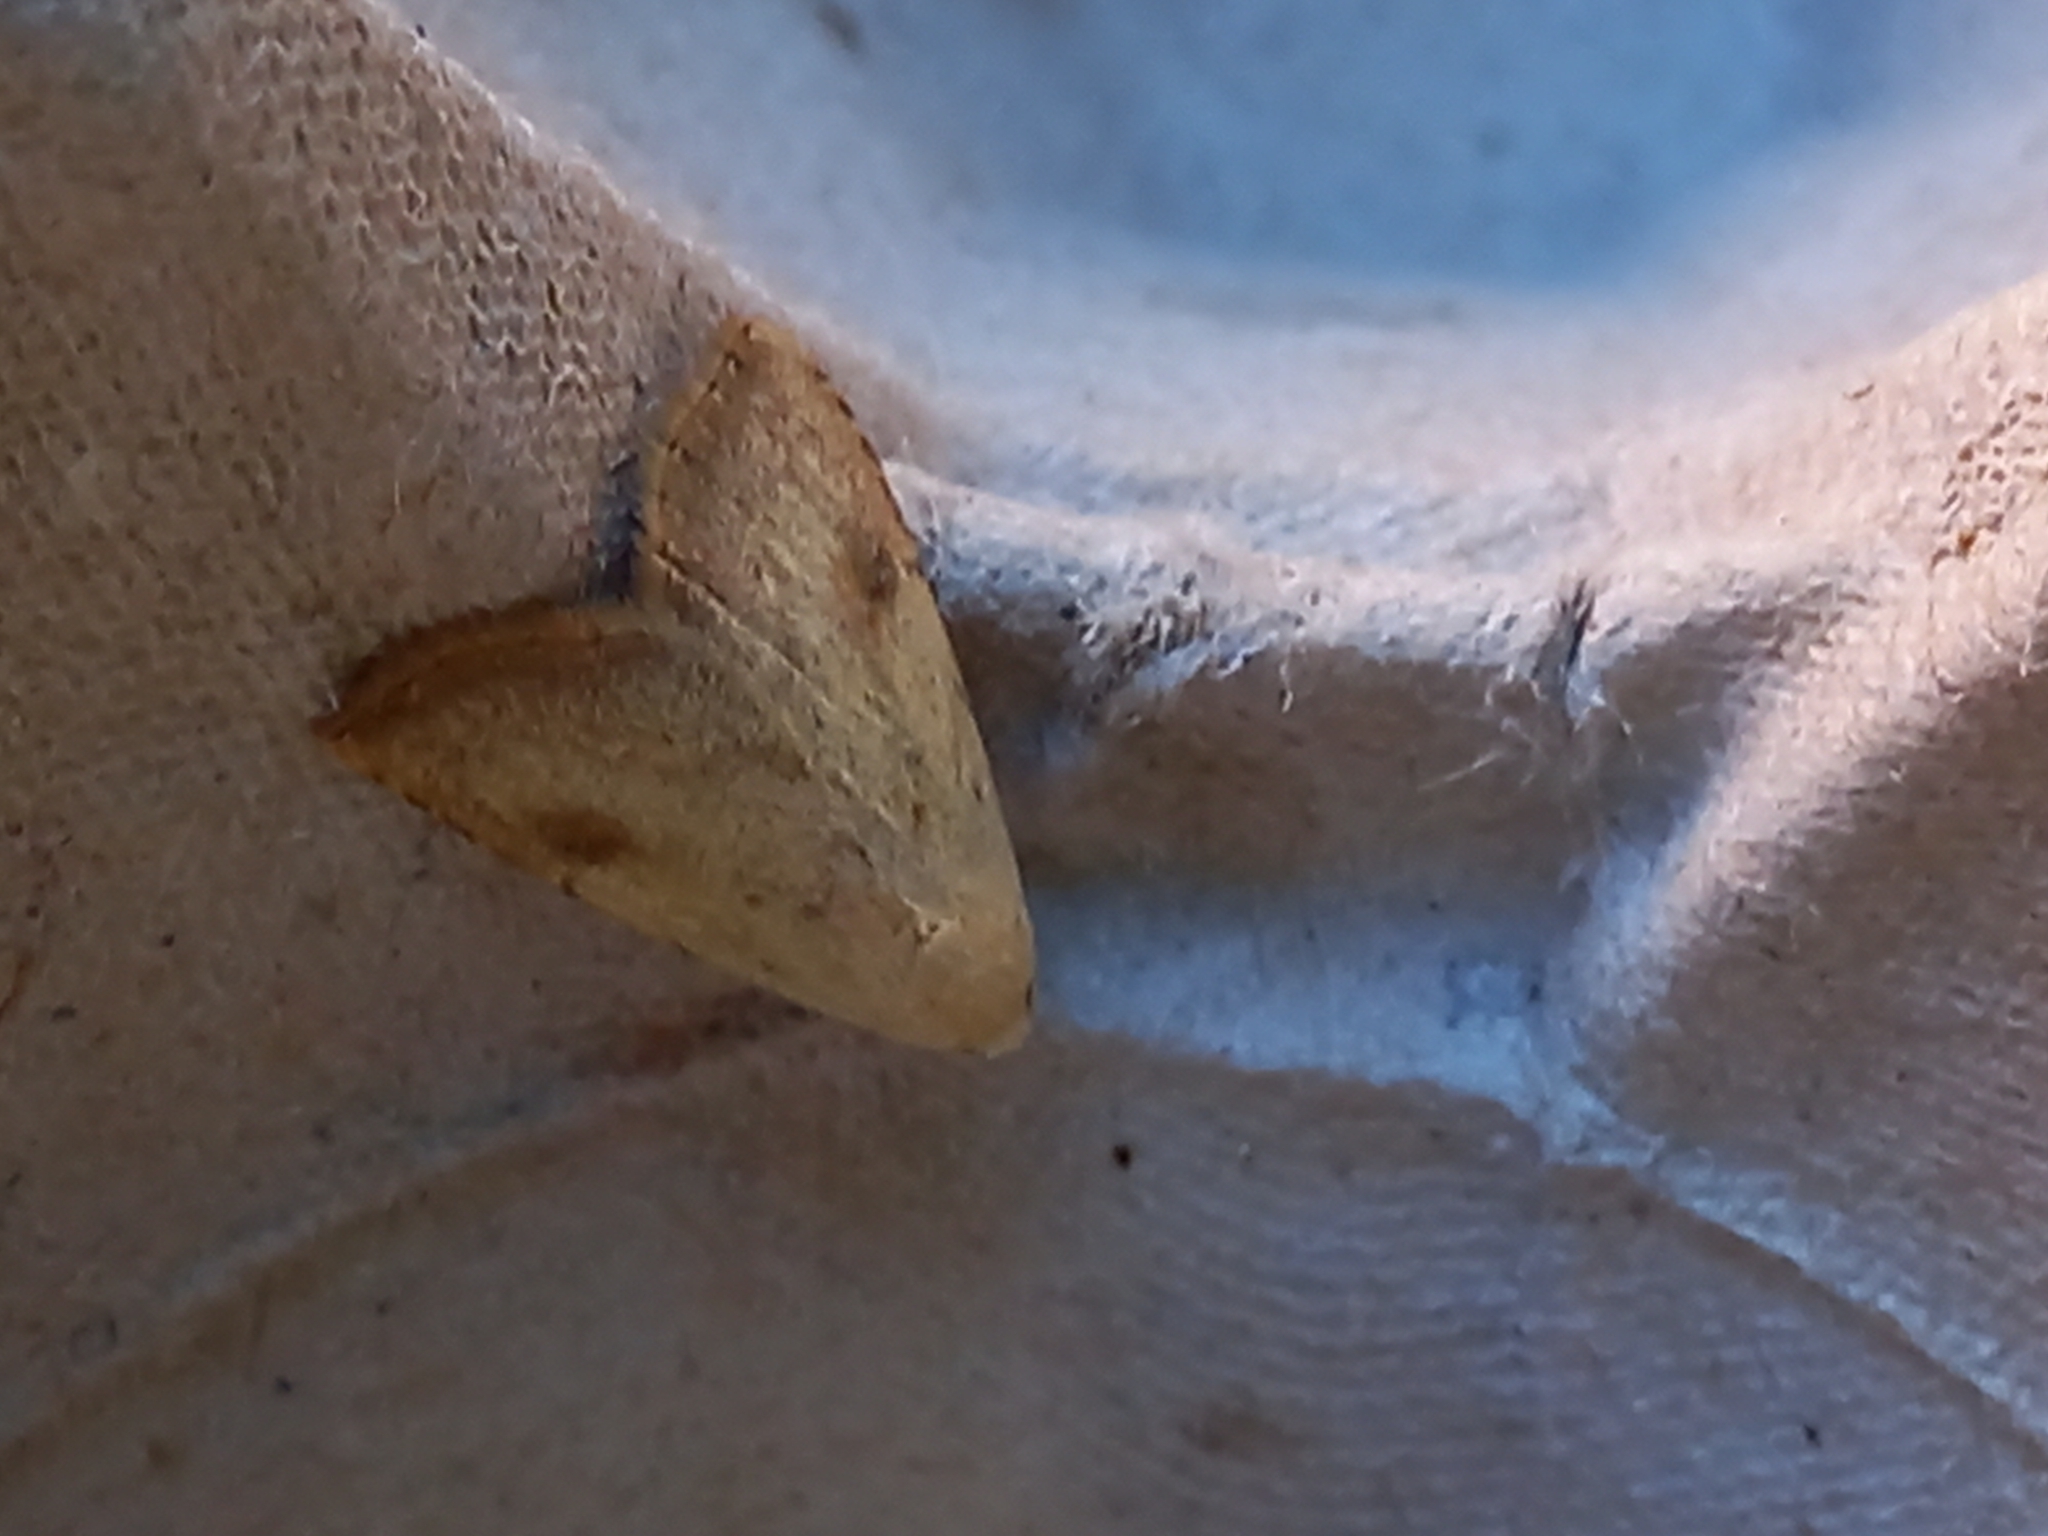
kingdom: Animalia
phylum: Arthropoda
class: Insecta
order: Lepidoptera
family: Erebidae
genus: Rivula
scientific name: Rivula sericealis
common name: Straw dot
